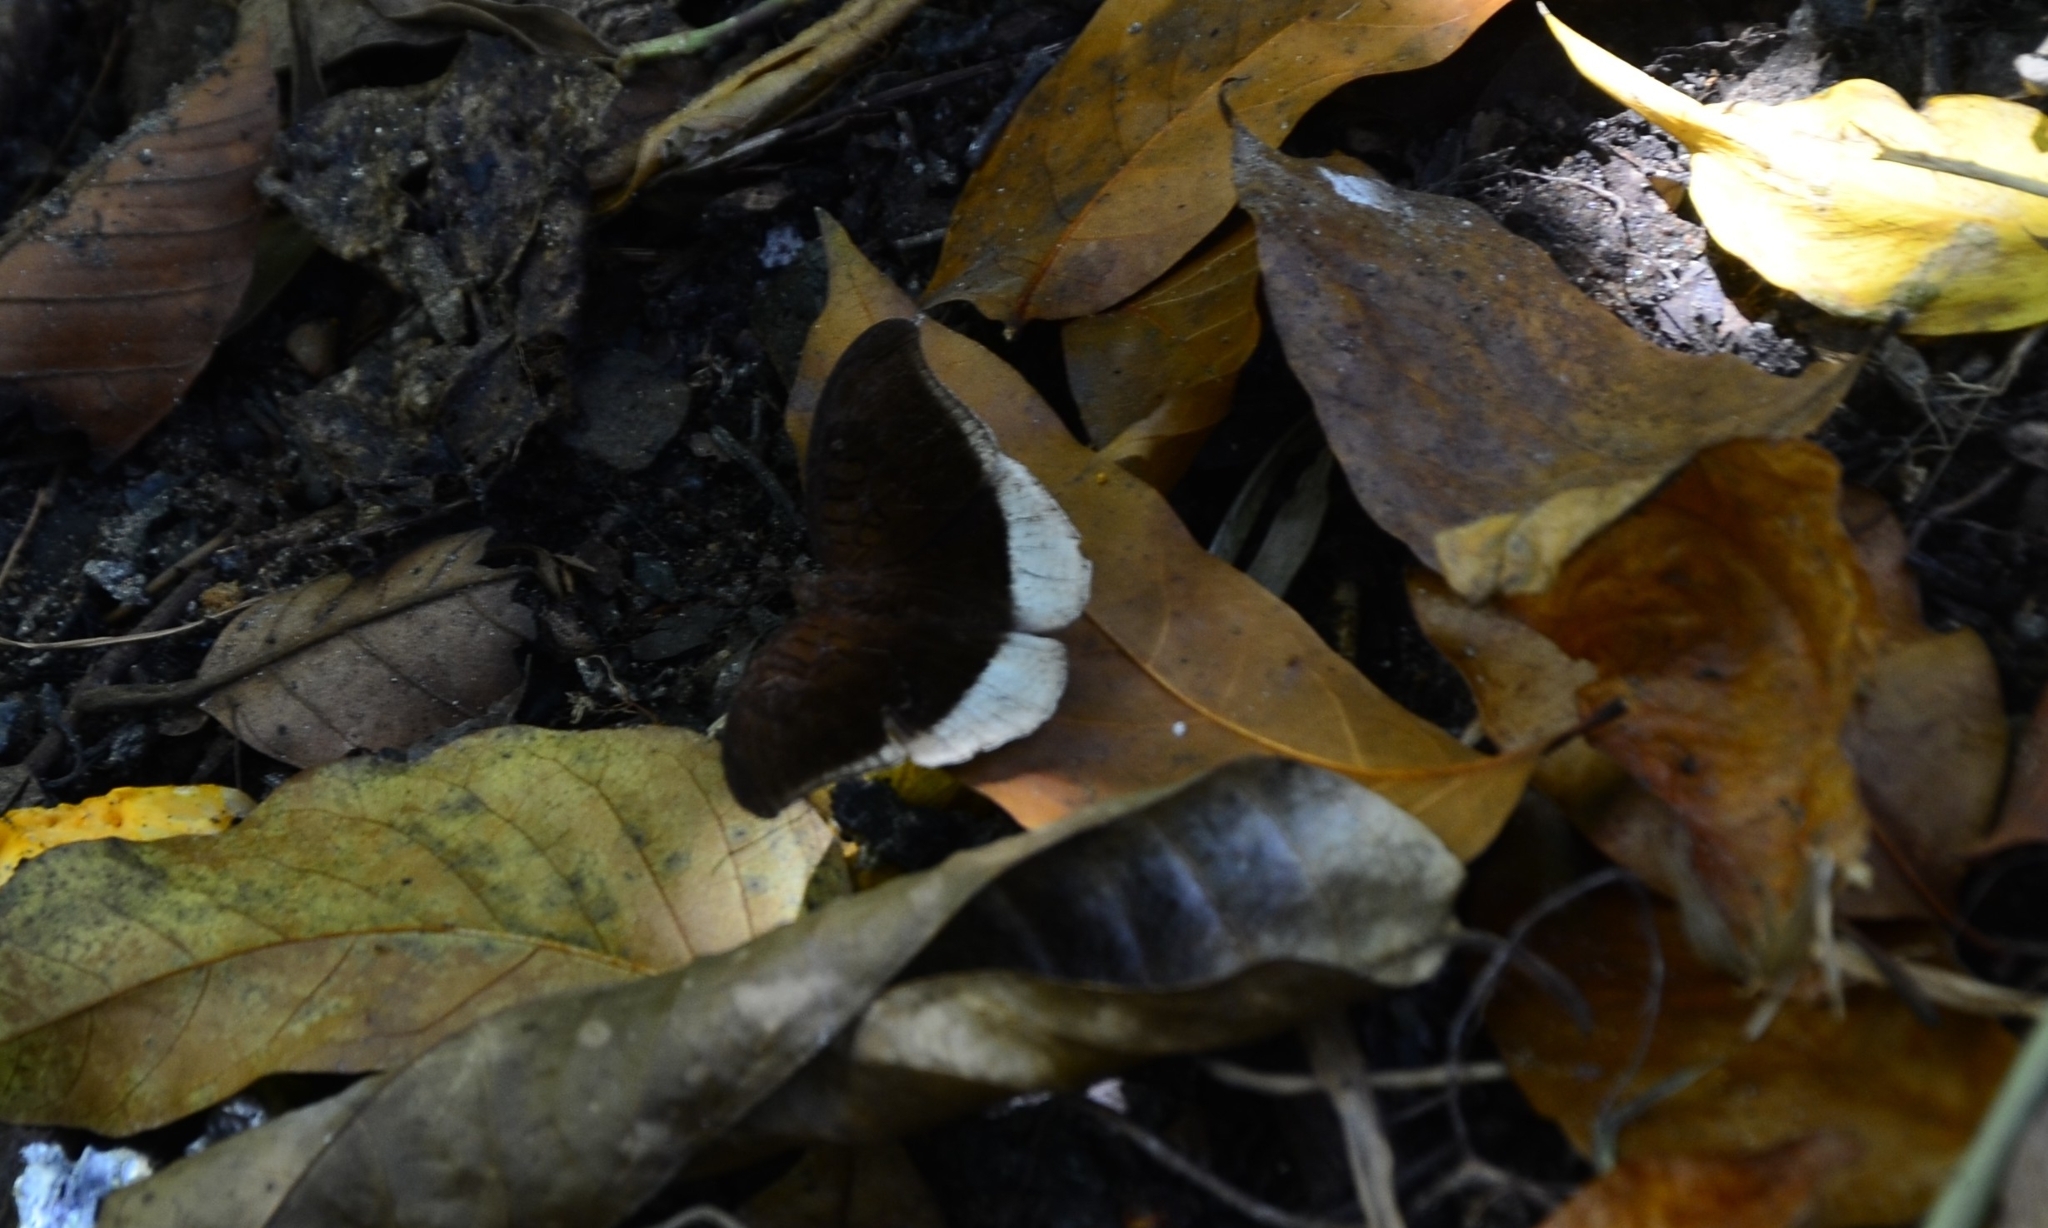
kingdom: Animalia
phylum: Arthropoda
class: Insecta
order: Lepidoptera
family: Nymphalidae
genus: Tanaecia
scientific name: Tanaecia lepidea
